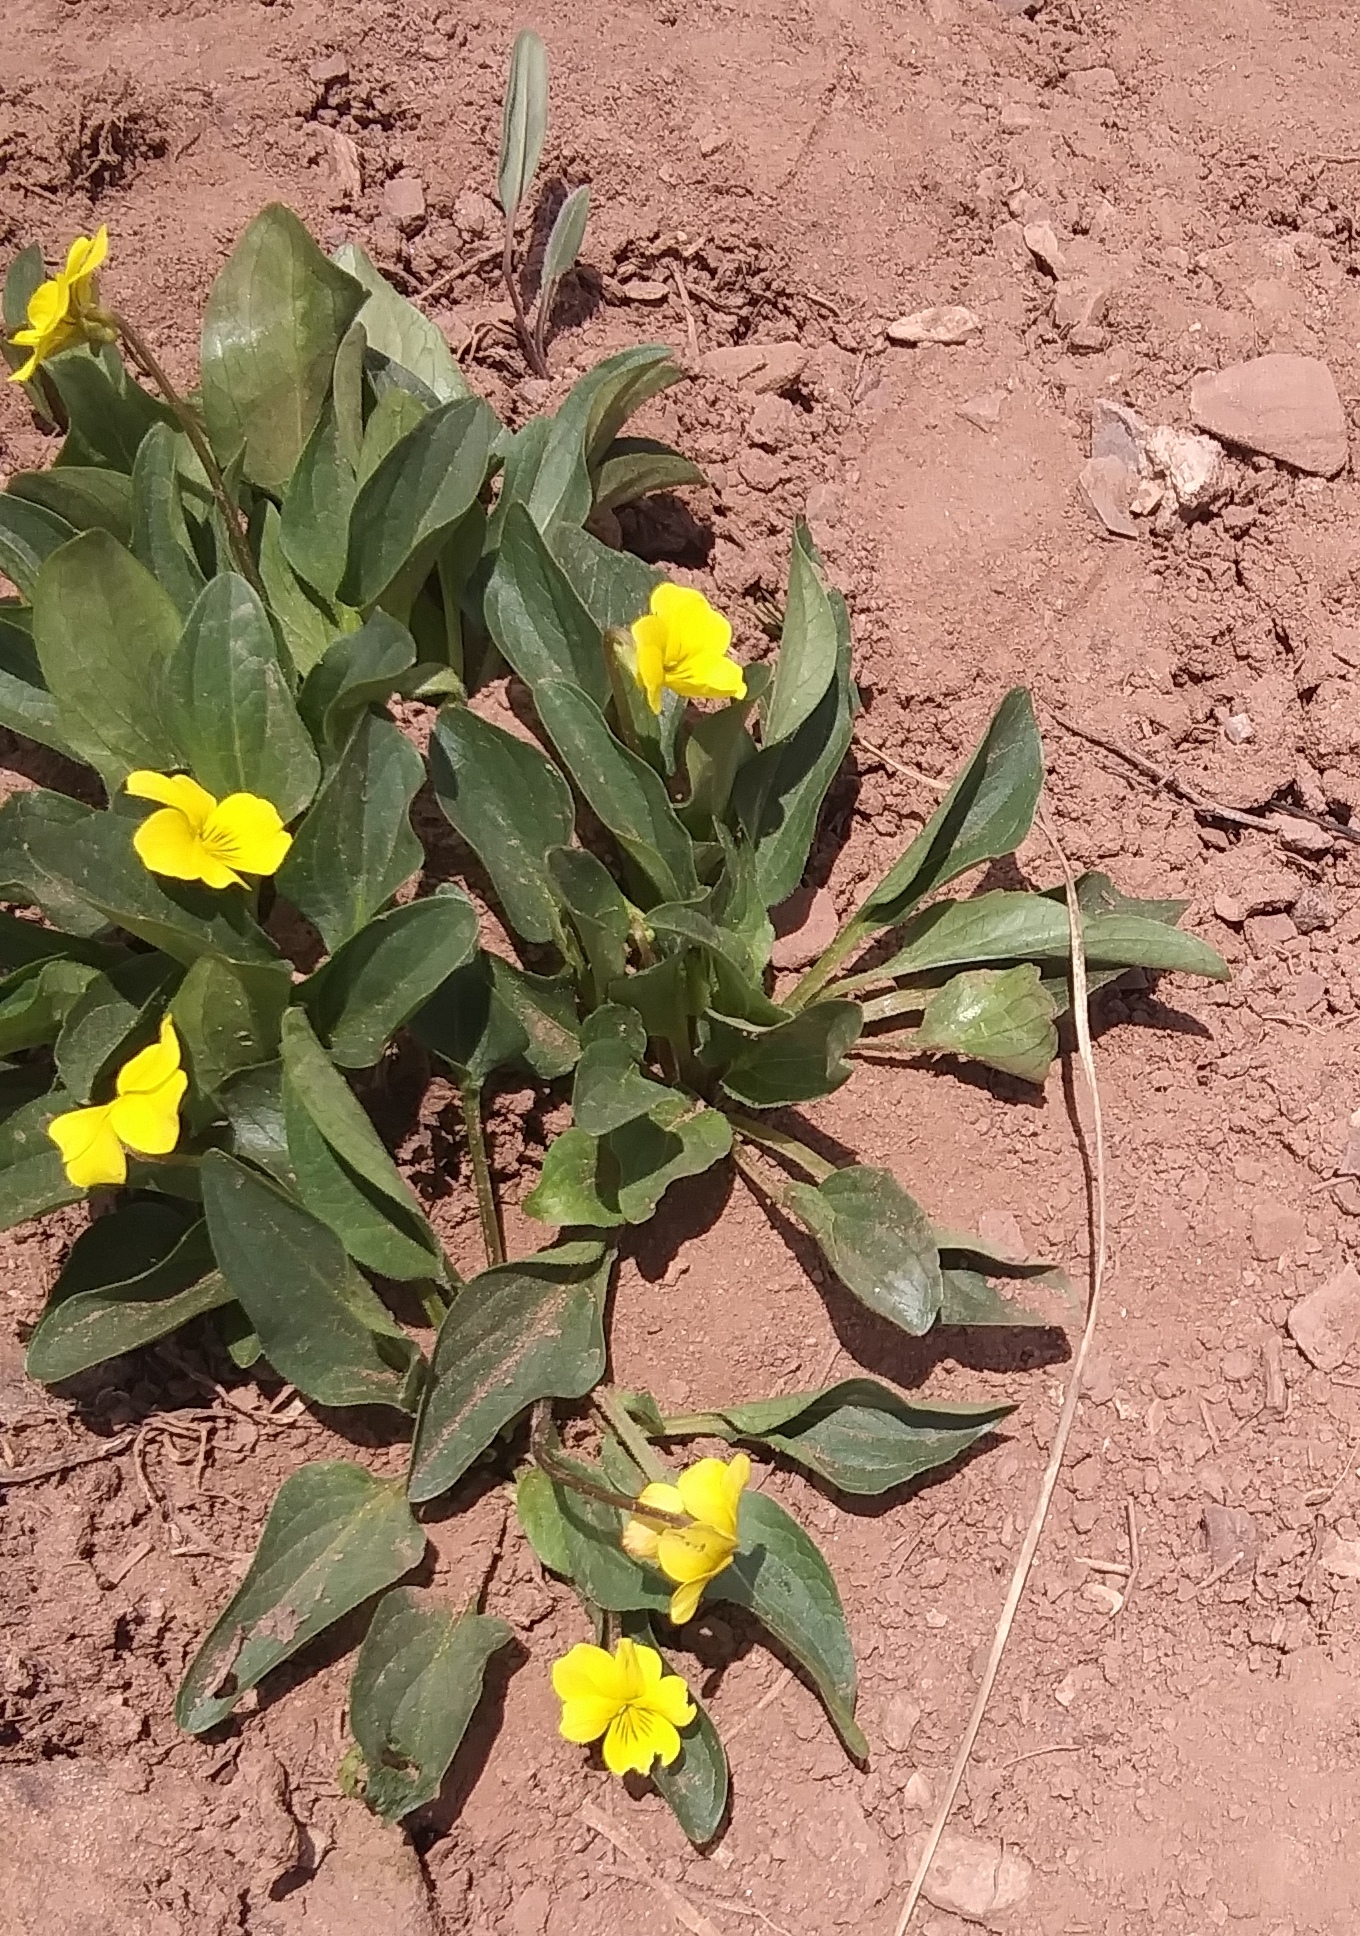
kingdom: Plantae
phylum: Tracheophyta
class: Magnoliopsida
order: Malpighiales
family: Violaceae
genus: Viola
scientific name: Viola praemorsa
